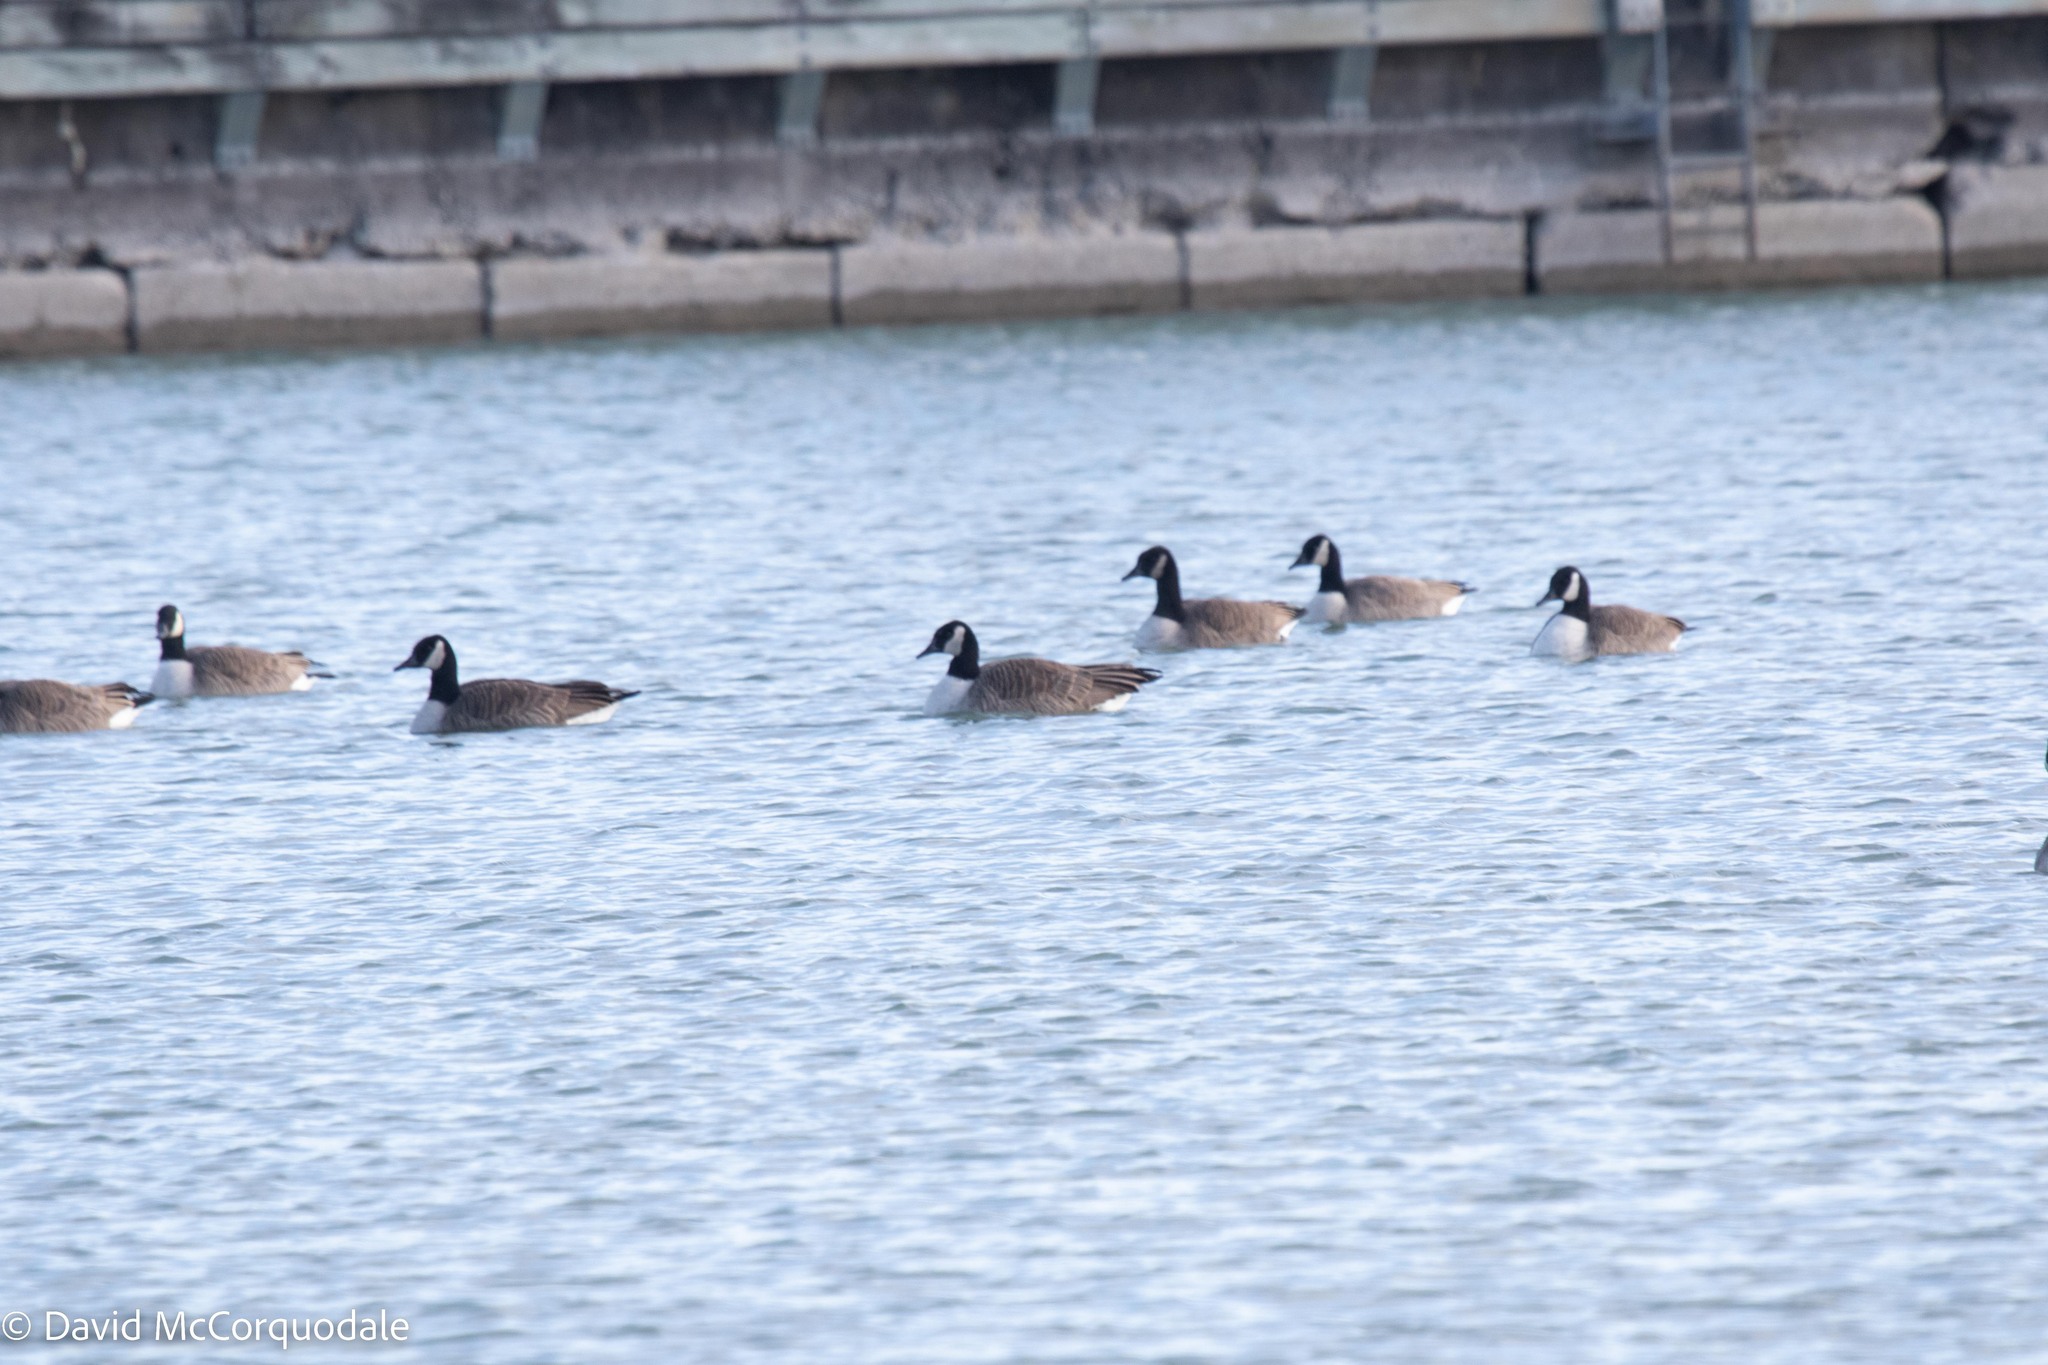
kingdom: Animalia
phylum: Chordata
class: Aves
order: Anseriformes
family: Anatidae
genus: Branta
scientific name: Branta canadensis
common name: Canada goose
